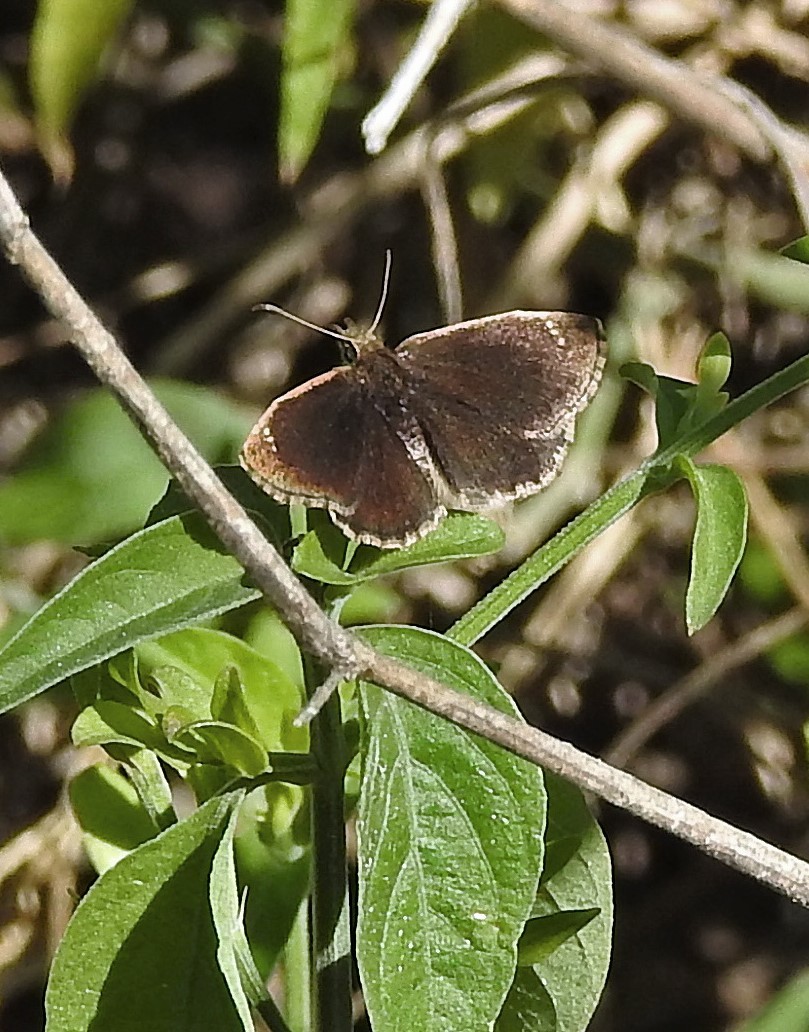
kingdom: Animalia
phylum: Arthropoda
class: Insecta
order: Lepidoptera
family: Hesperiidae
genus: Zopyrion
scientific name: Zopyrion evenor
